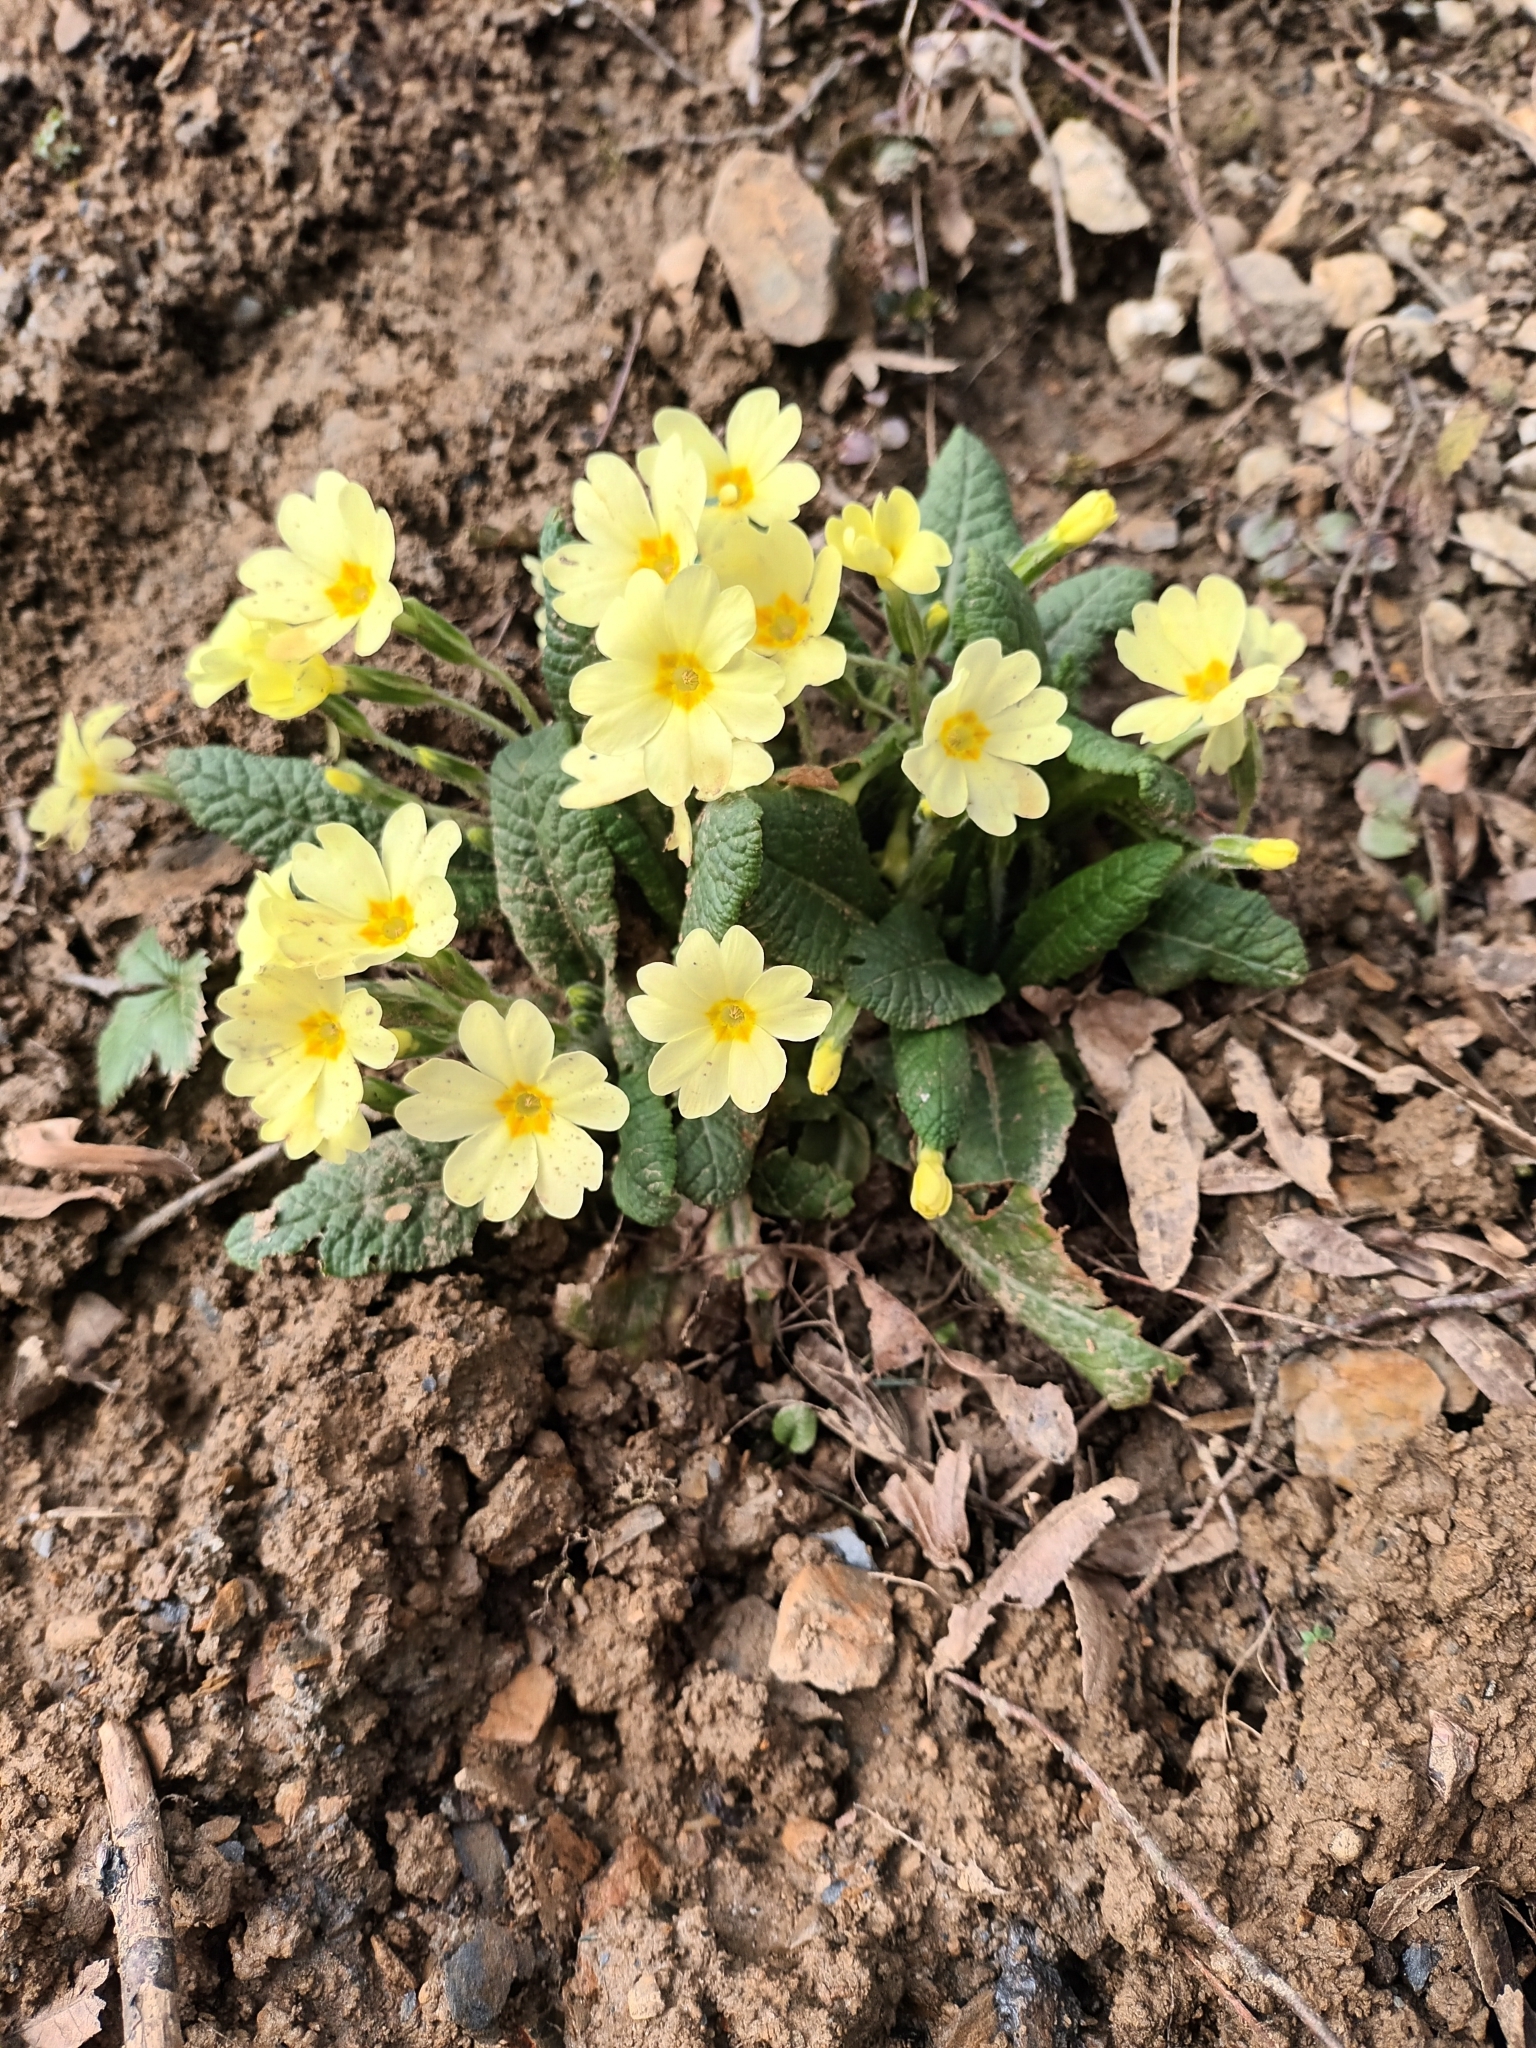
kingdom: Plantae
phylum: Tracheophyta
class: Magnoliopsida
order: Ericales
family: Primulaceae
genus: Primula
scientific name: Primula vulgaris
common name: Primrose
